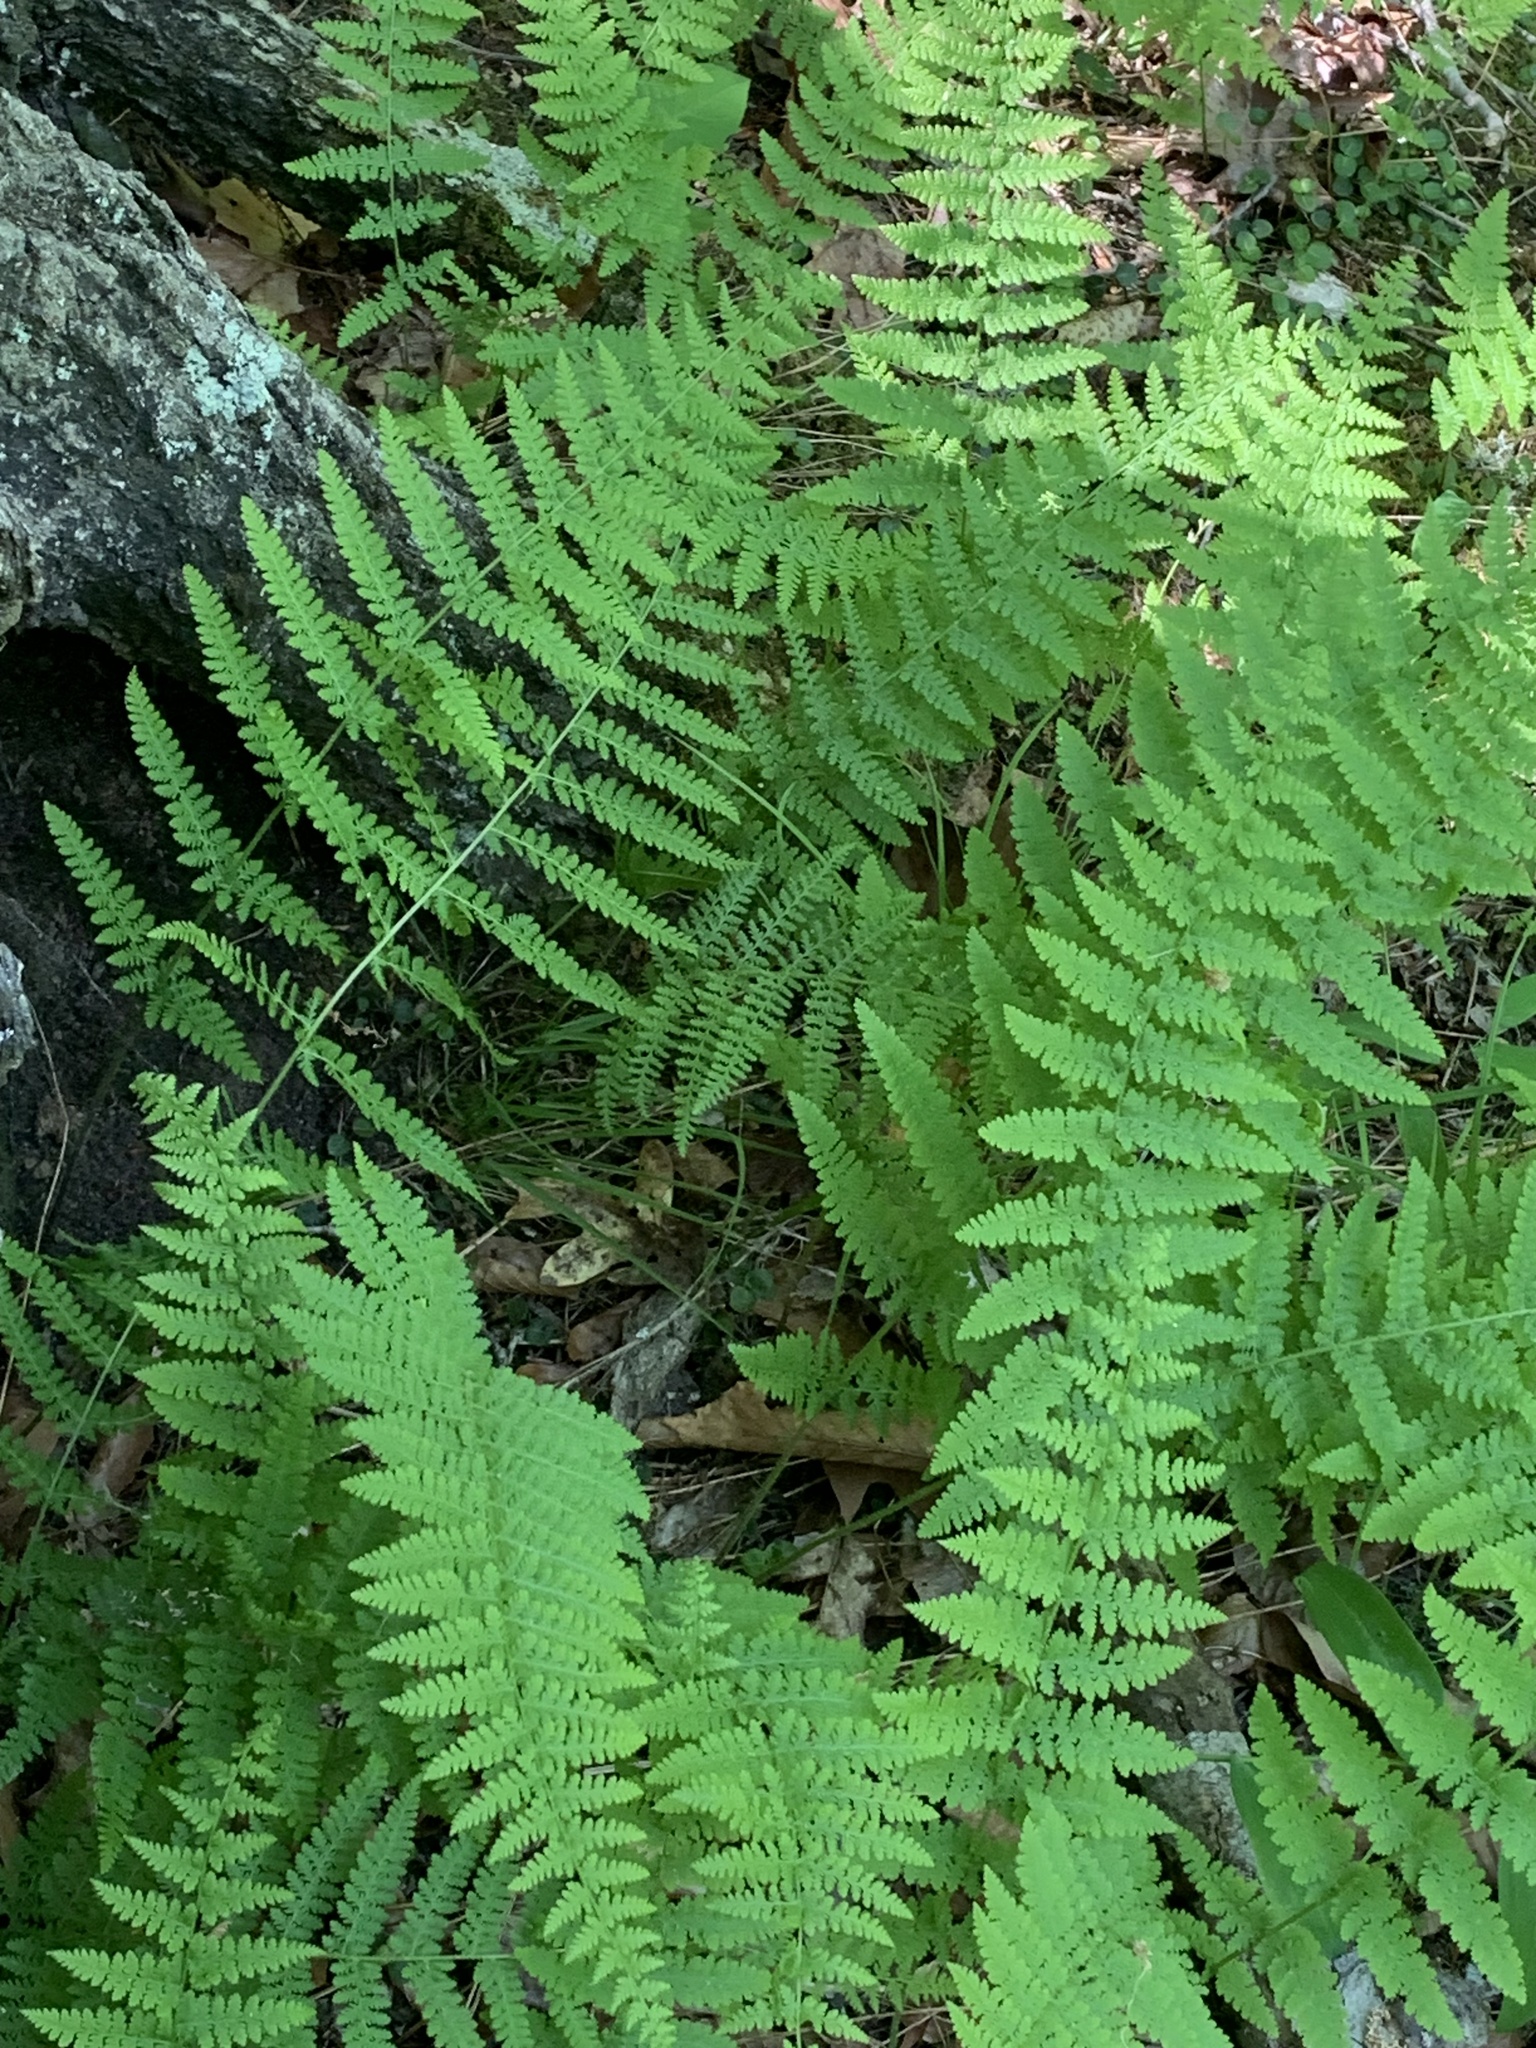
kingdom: Plantae
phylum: Tracheophyta
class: Polypodiopsida
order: Polypodiales
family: Dennstaedtiaceae
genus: Sitobolium
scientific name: Sitobolium punctilobum
